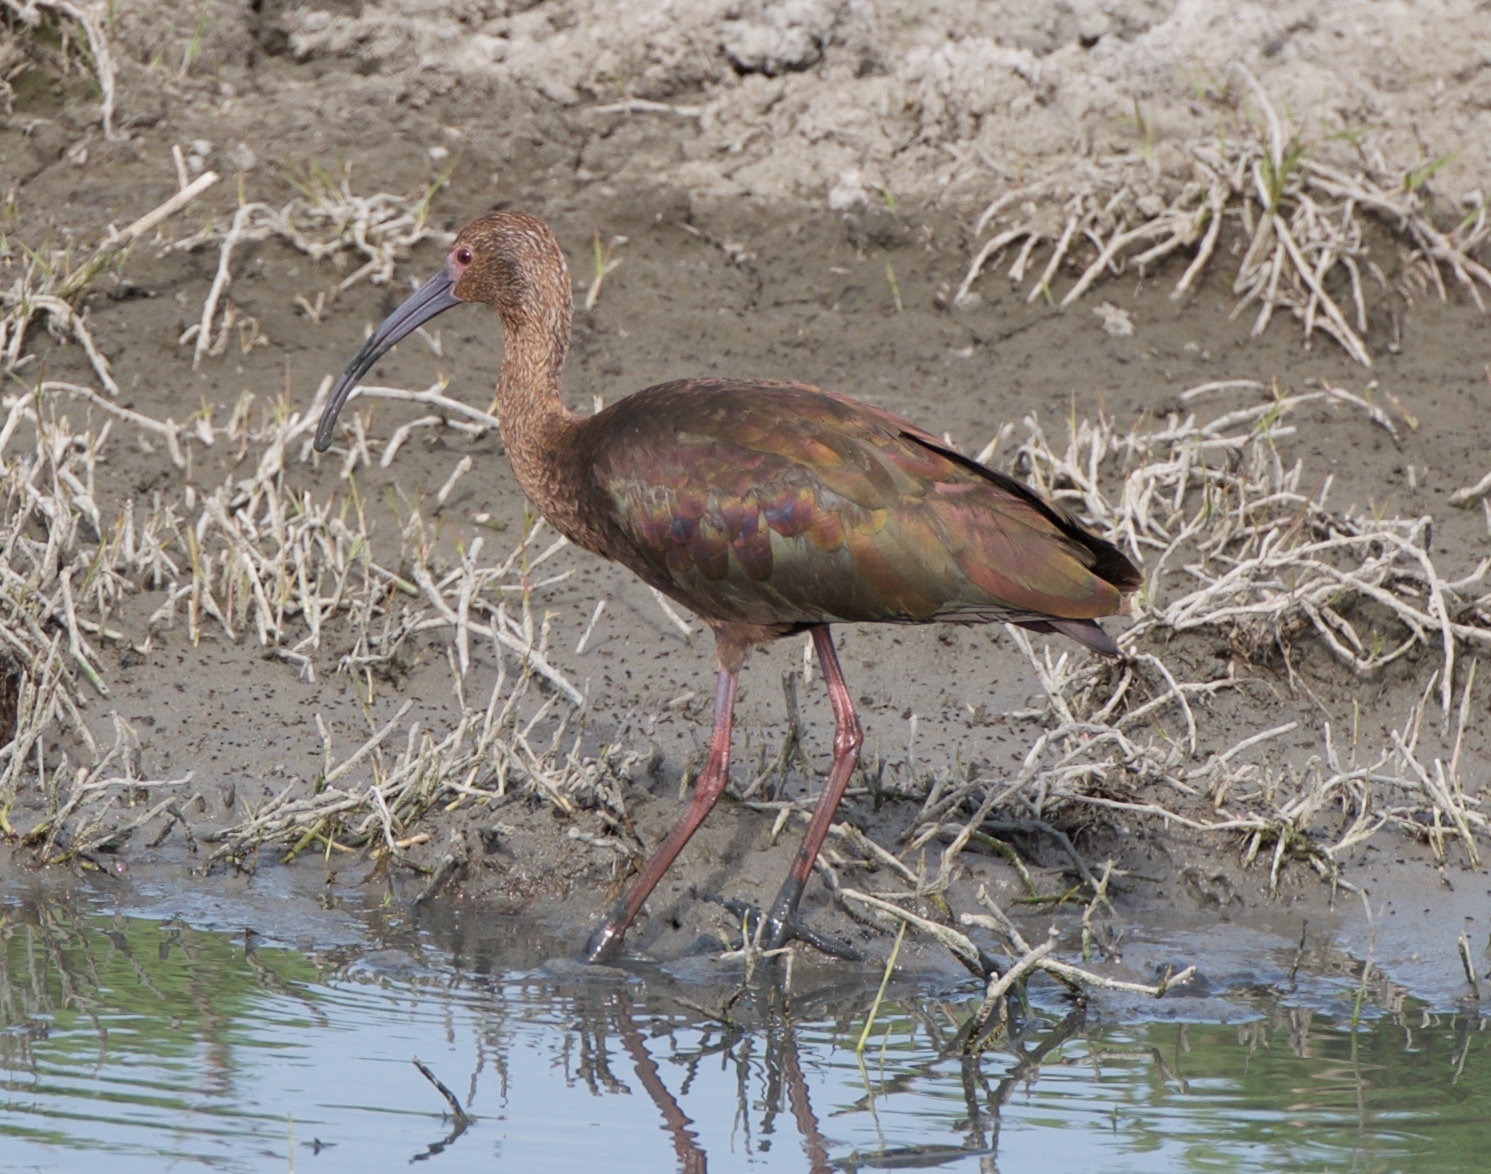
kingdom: Animalia
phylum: Chordata
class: Aves
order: Pelecaniformes
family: Threskiornithidae
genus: Plegadis
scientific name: Plegadis chihi
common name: White-faced ibis
